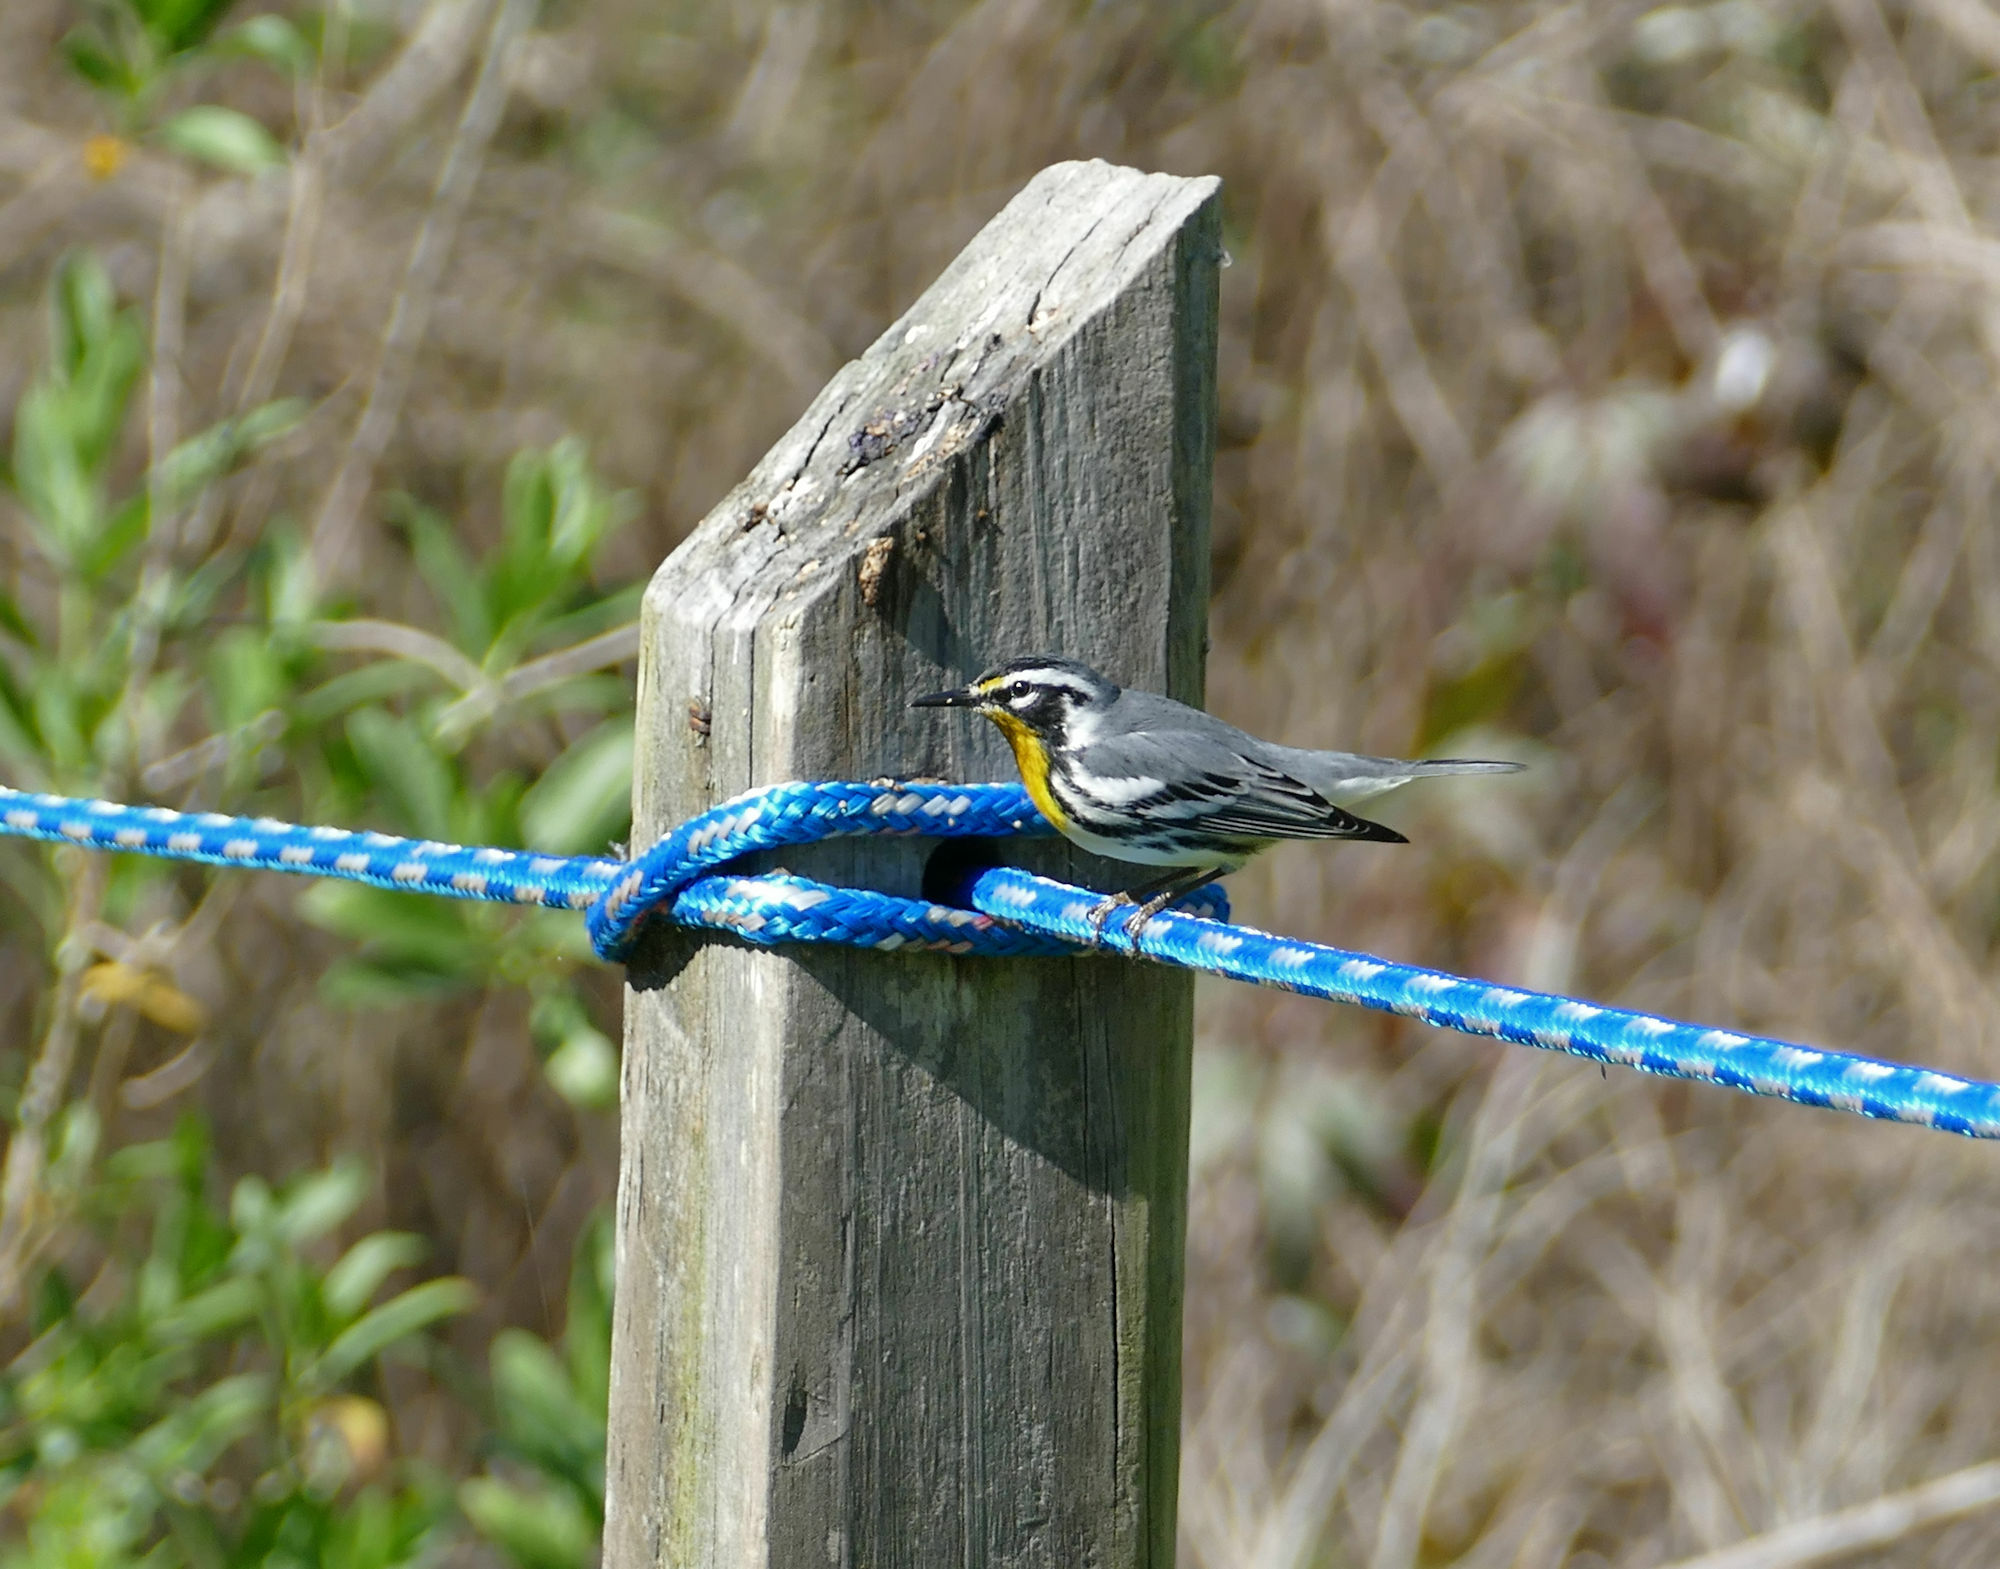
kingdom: Animalia
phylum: Chordata
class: Aves
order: Passeriformes
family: Parulidae
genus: Setophaga
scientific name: Setophaga dominica
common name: Yellow-throated warbler
